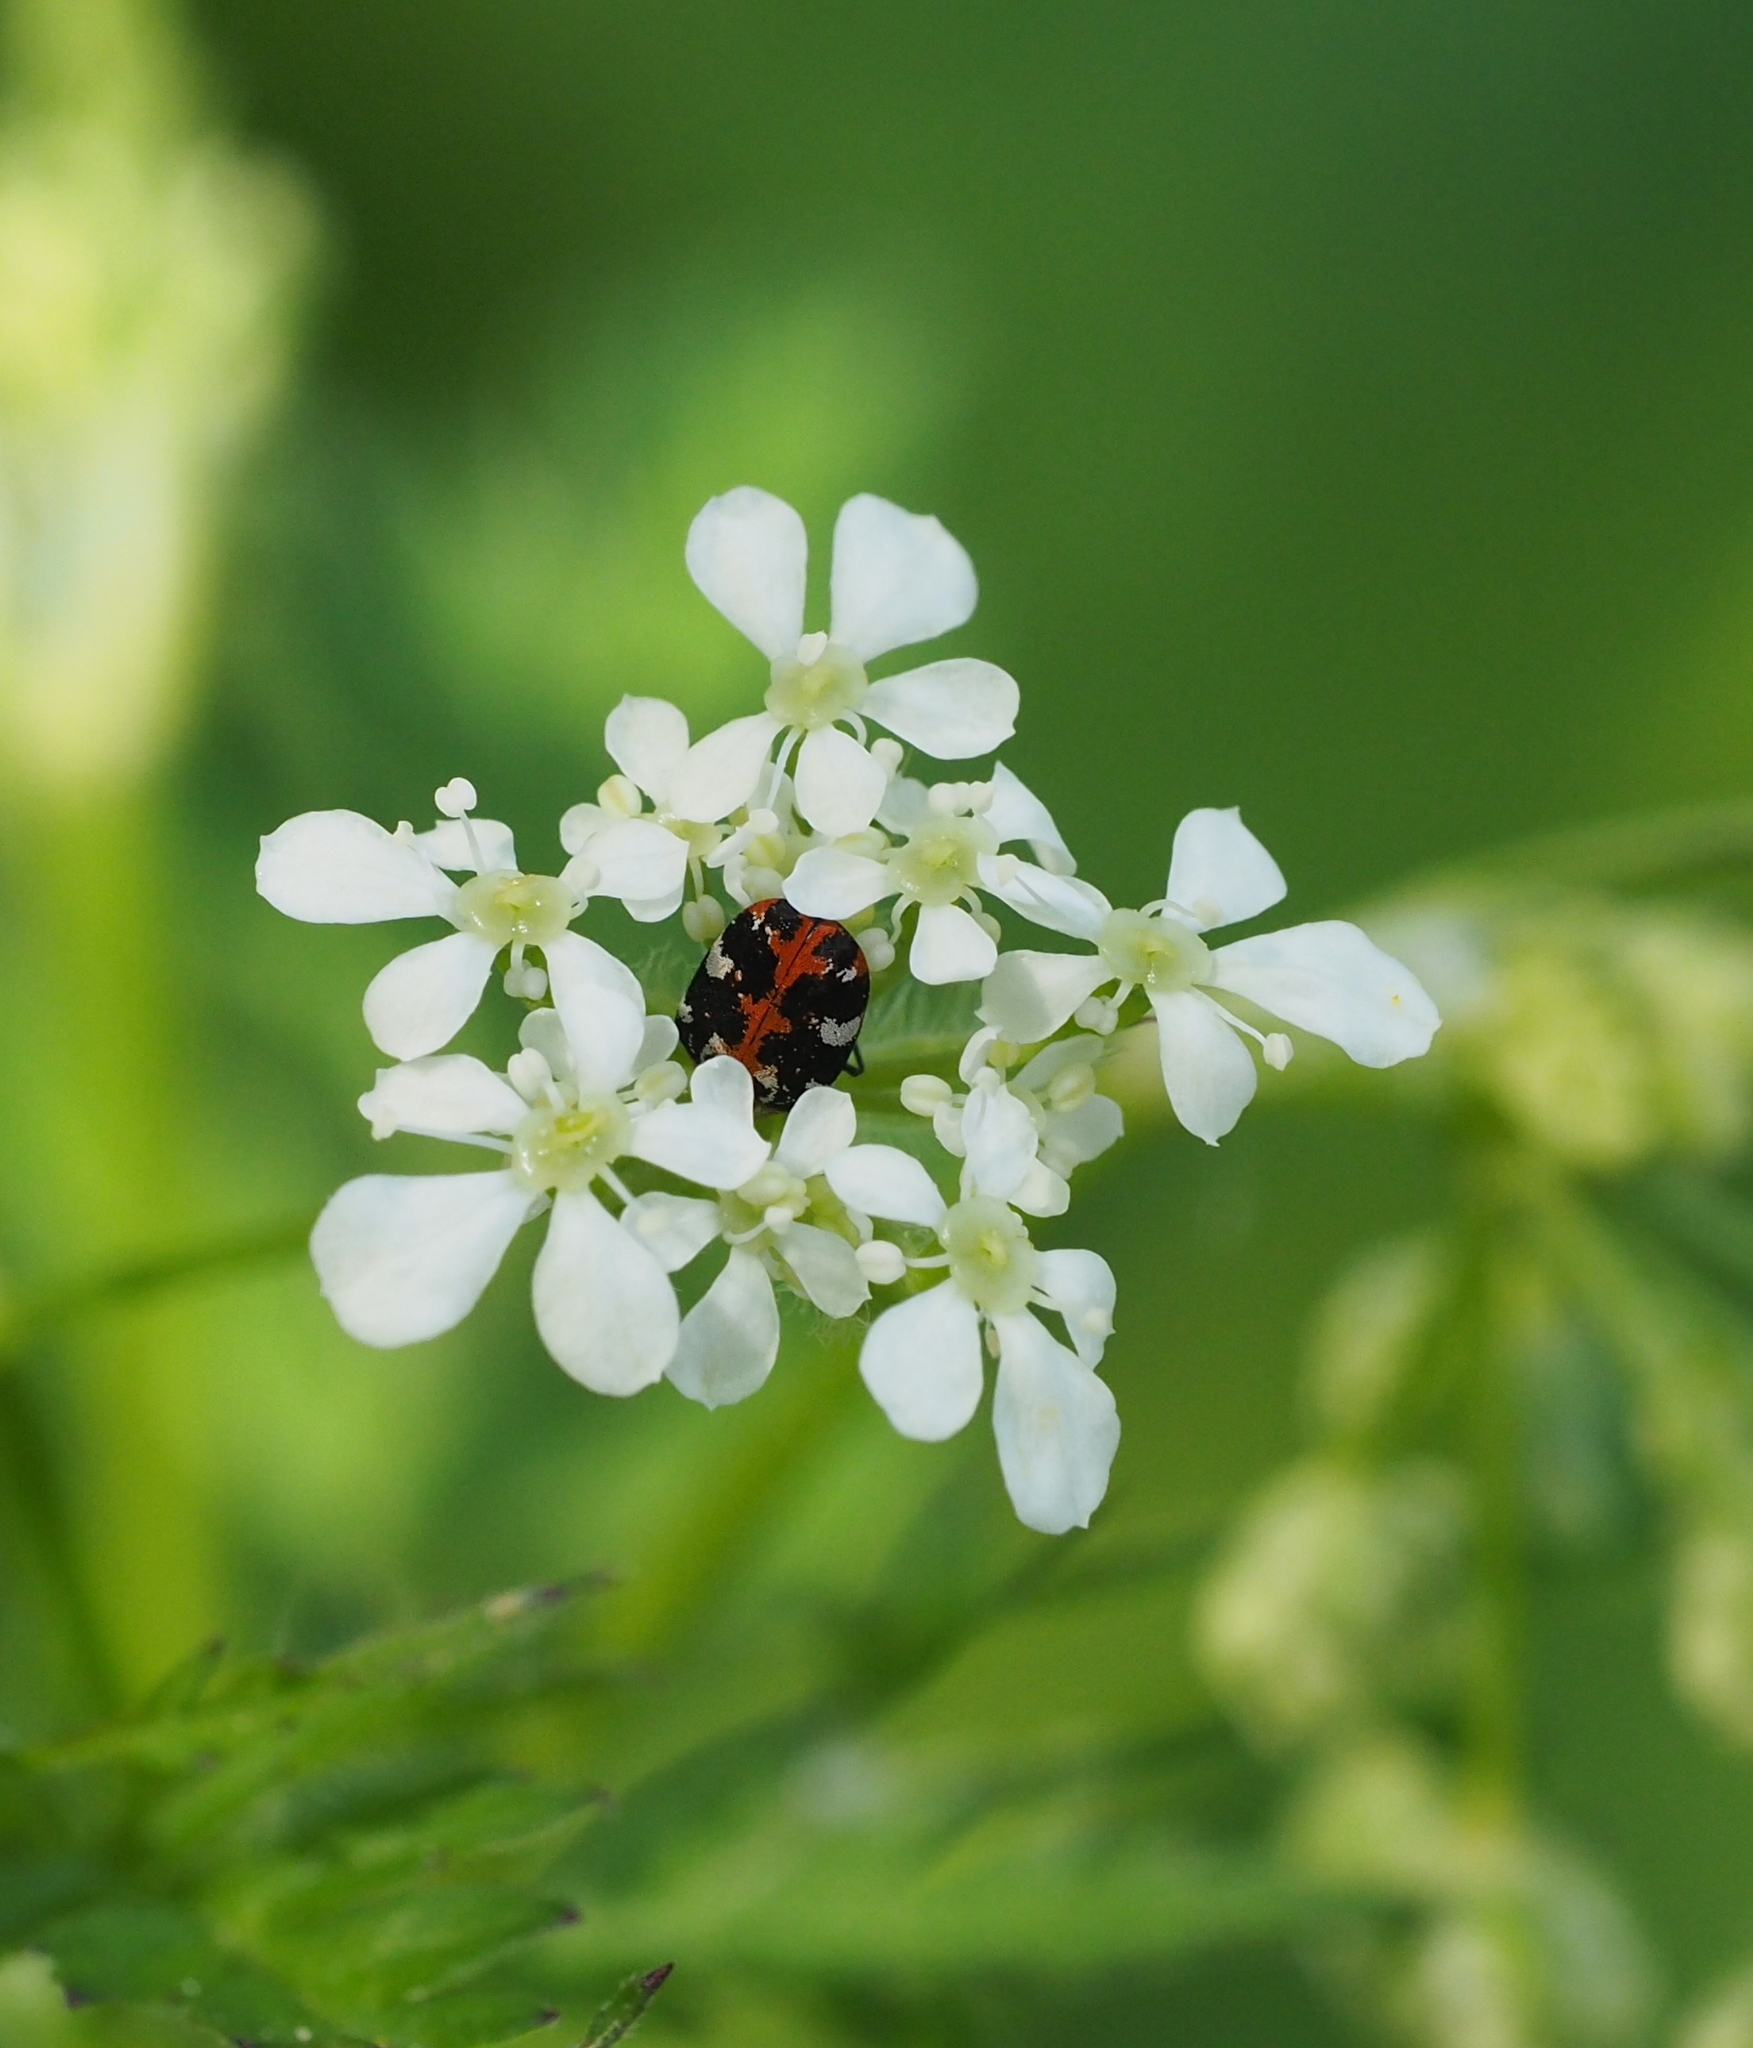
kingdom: Animalia
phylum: Arthropoda
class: Insecta
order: Coleoptera
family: Dermestidae
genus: Anthrenus
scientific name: Anthrenus scrophulariae
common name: Buffalo carpet beetle
